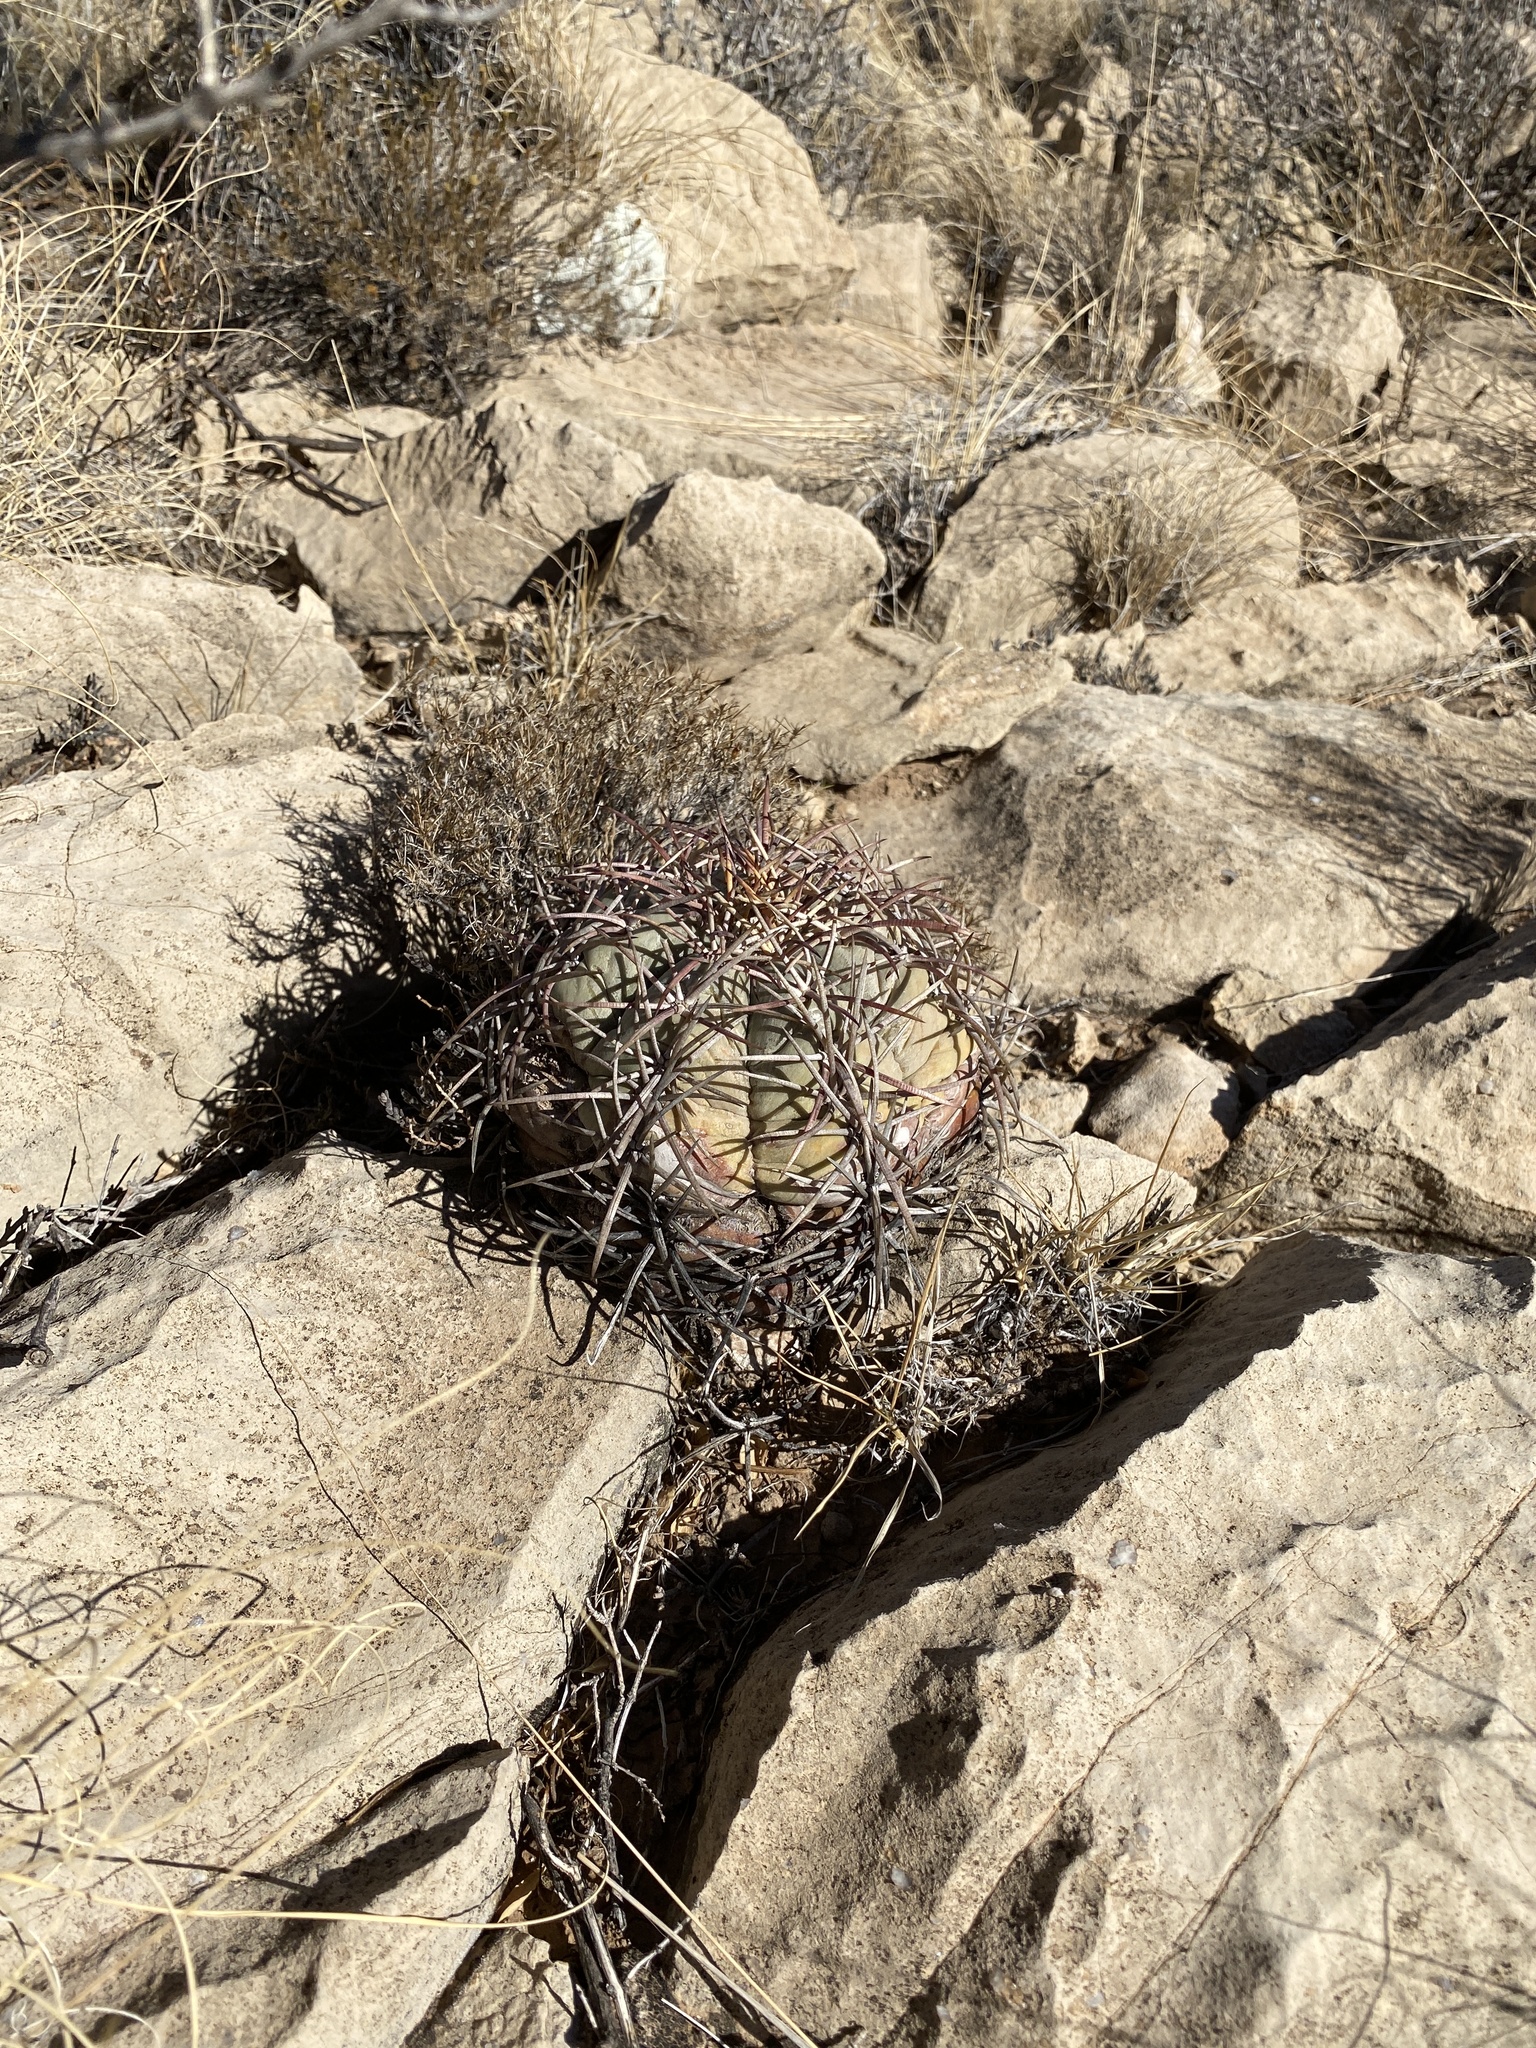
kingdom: Plantae
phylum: Tracheophyta
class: Magnoliopsida
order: Caryophyllales
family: Cactaceae
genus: Echinocactus
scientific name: Echinocactus horizonthalonius
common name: Devilshead
